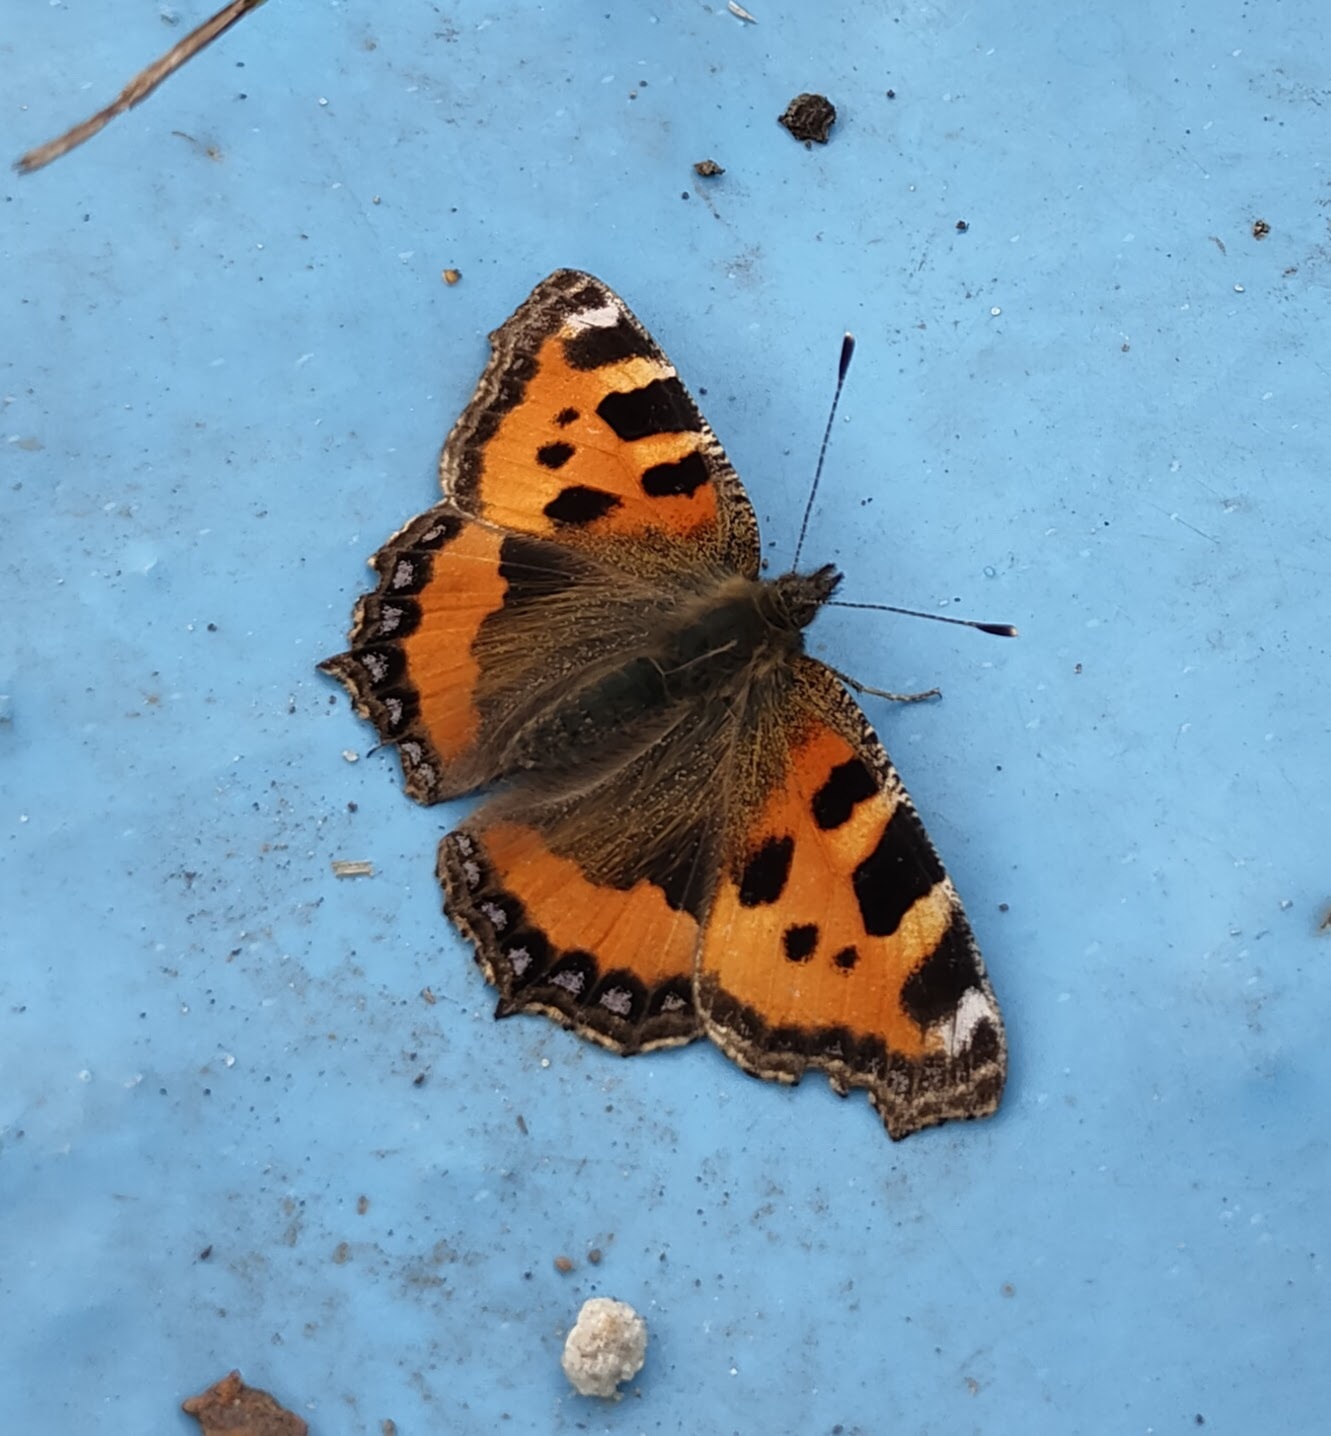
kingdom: Animalia
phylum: Arthropoda
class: Insecta
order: Lepidoptera
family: Nymphalidae
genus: Aglais
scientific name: Aglais urticae
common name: Small tortoiseshell
